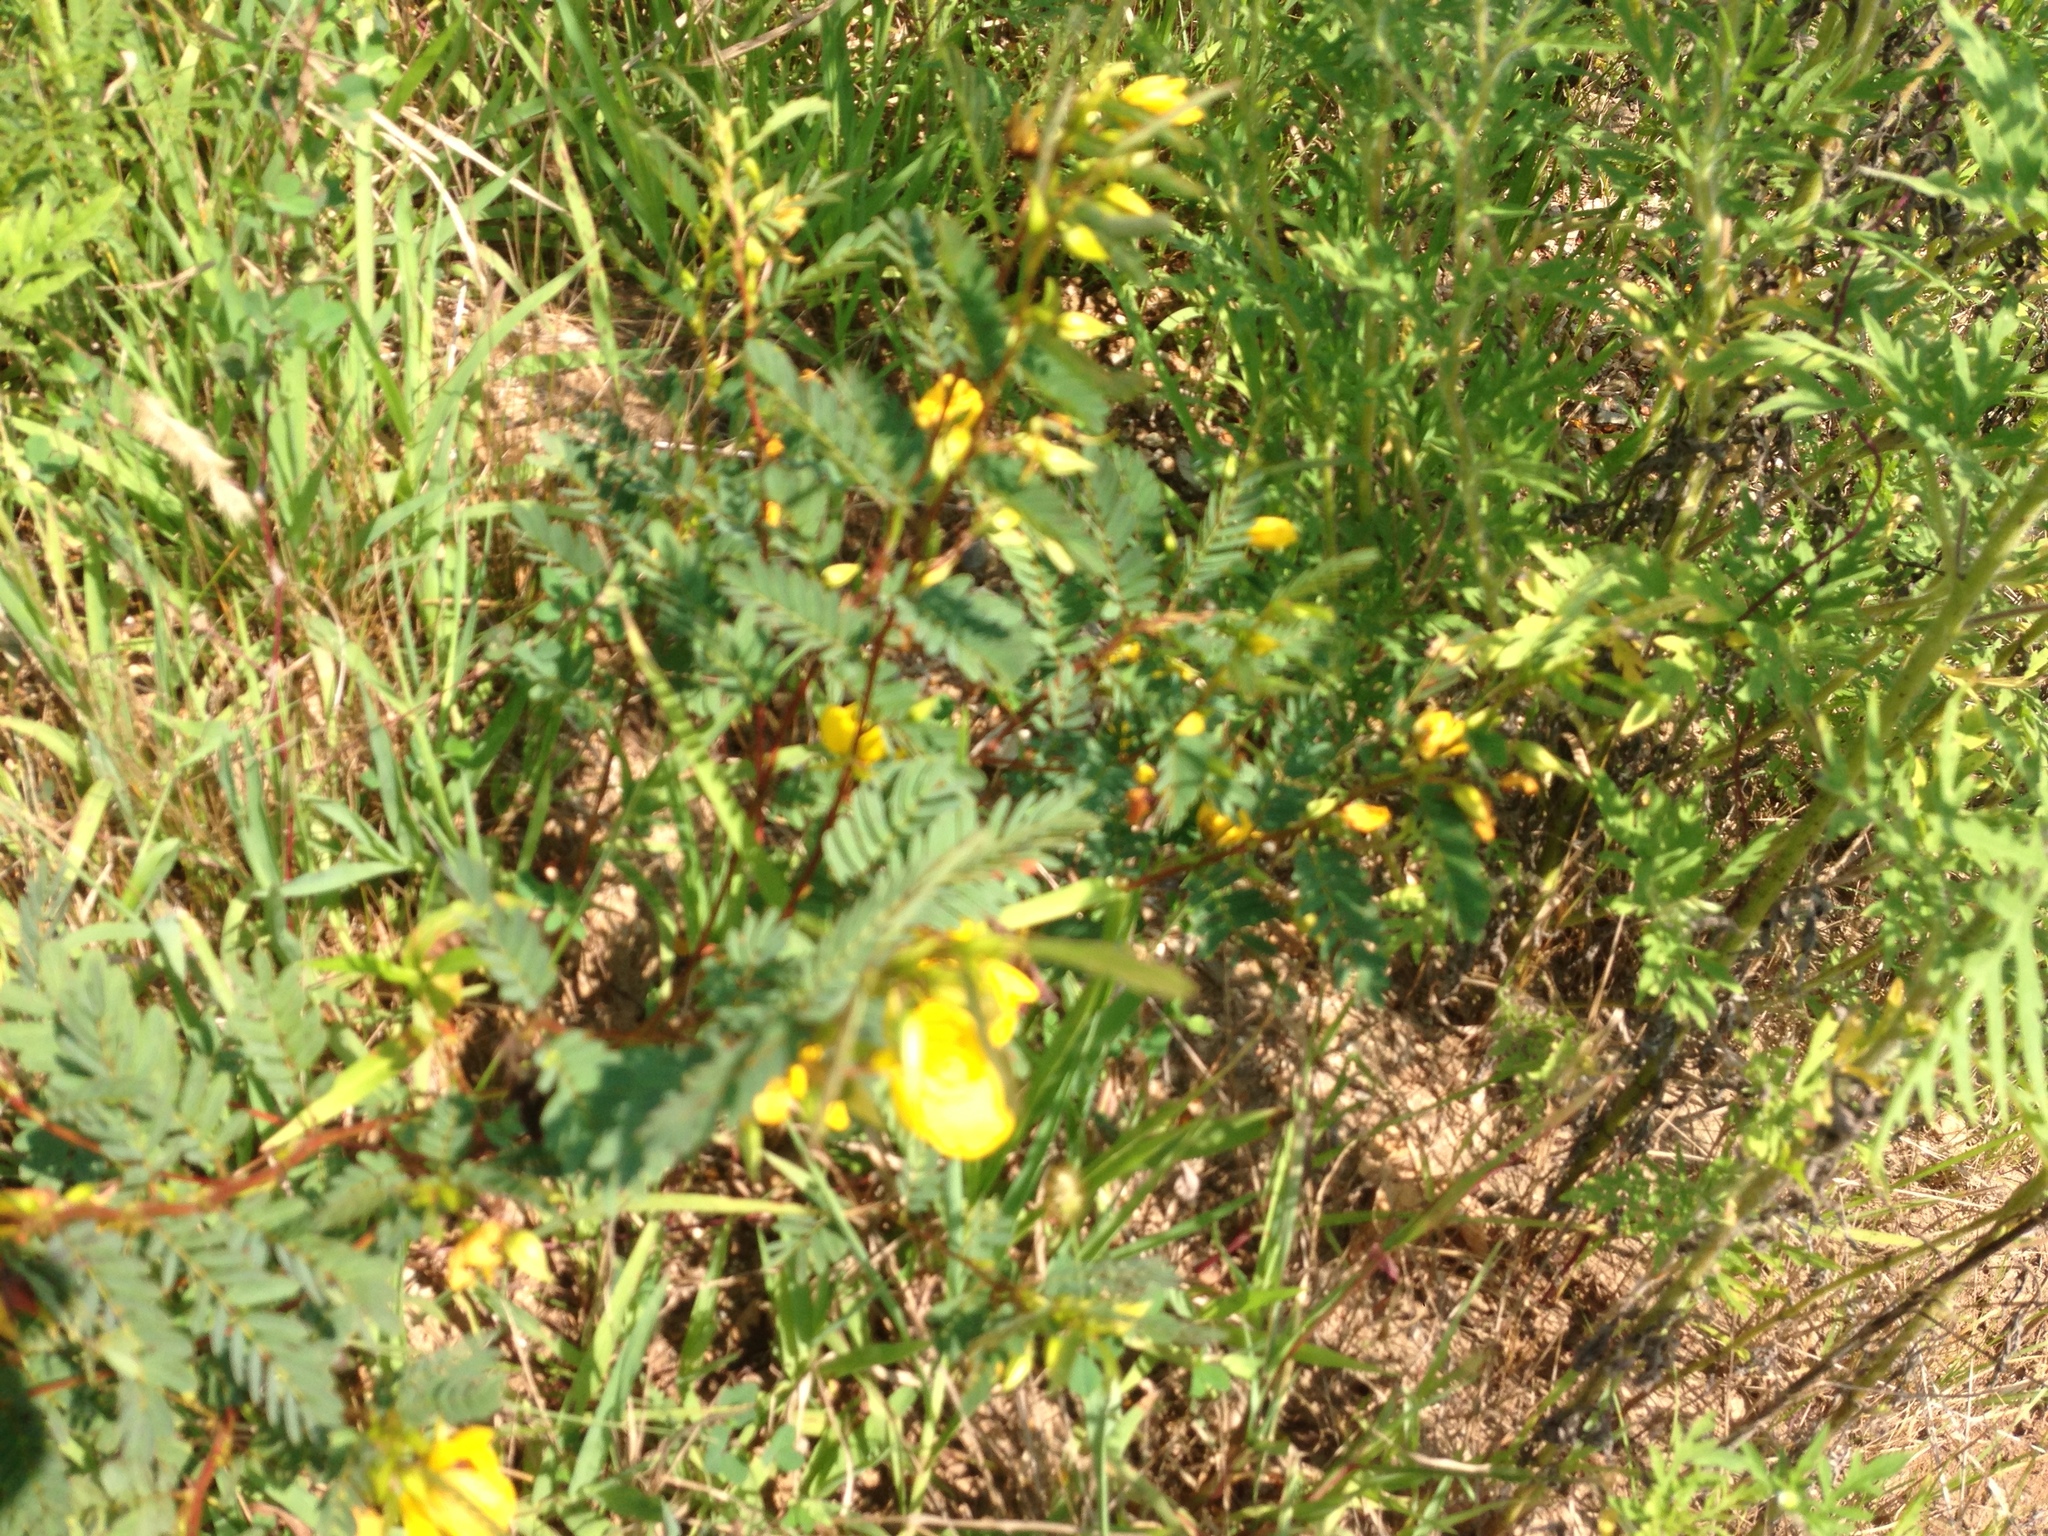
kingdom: Plantae
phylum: Tracheophyta
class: Magnoliopsida
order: Fabales
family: Fabaceae
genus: Chamaecrista
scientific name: Chamaecrista fasciculata
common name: Golden cassia
